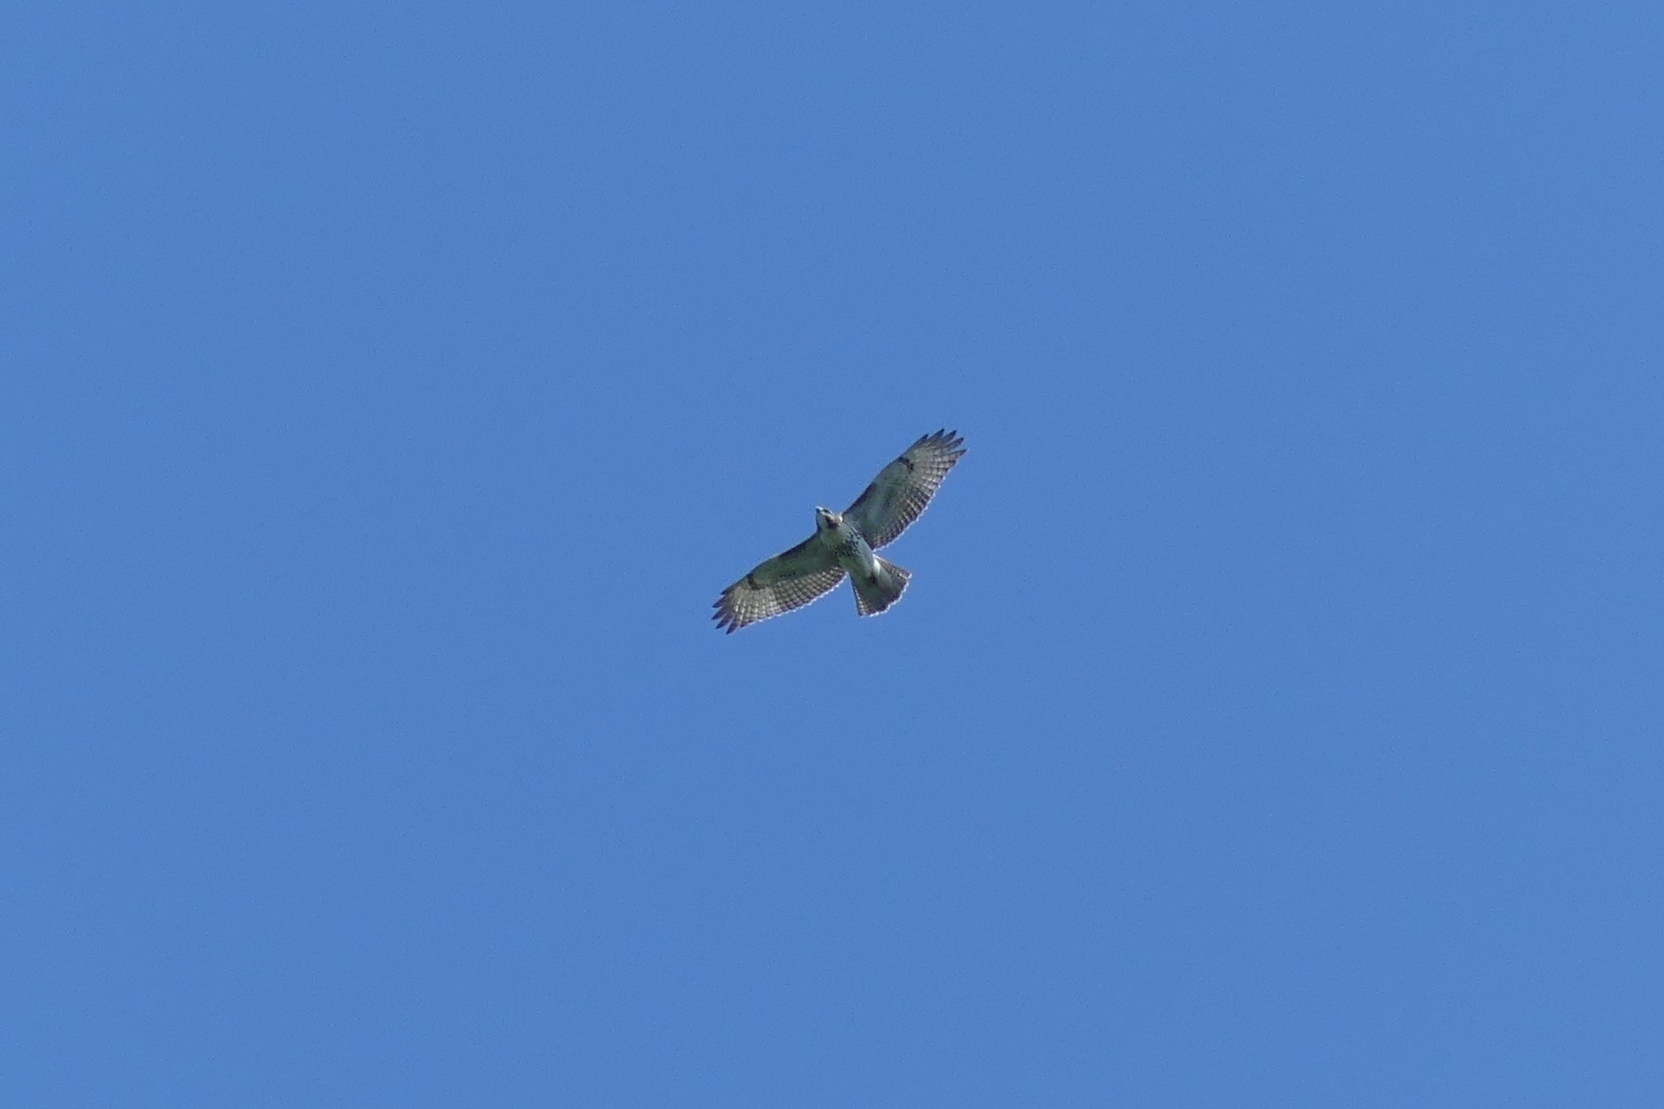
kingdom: Animalia
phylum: Chordata
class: Aves
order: Accipitriformes
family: Accipitridae
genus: Buteo
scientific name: Buteo jamaicensis
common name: Red-tailed hawk
